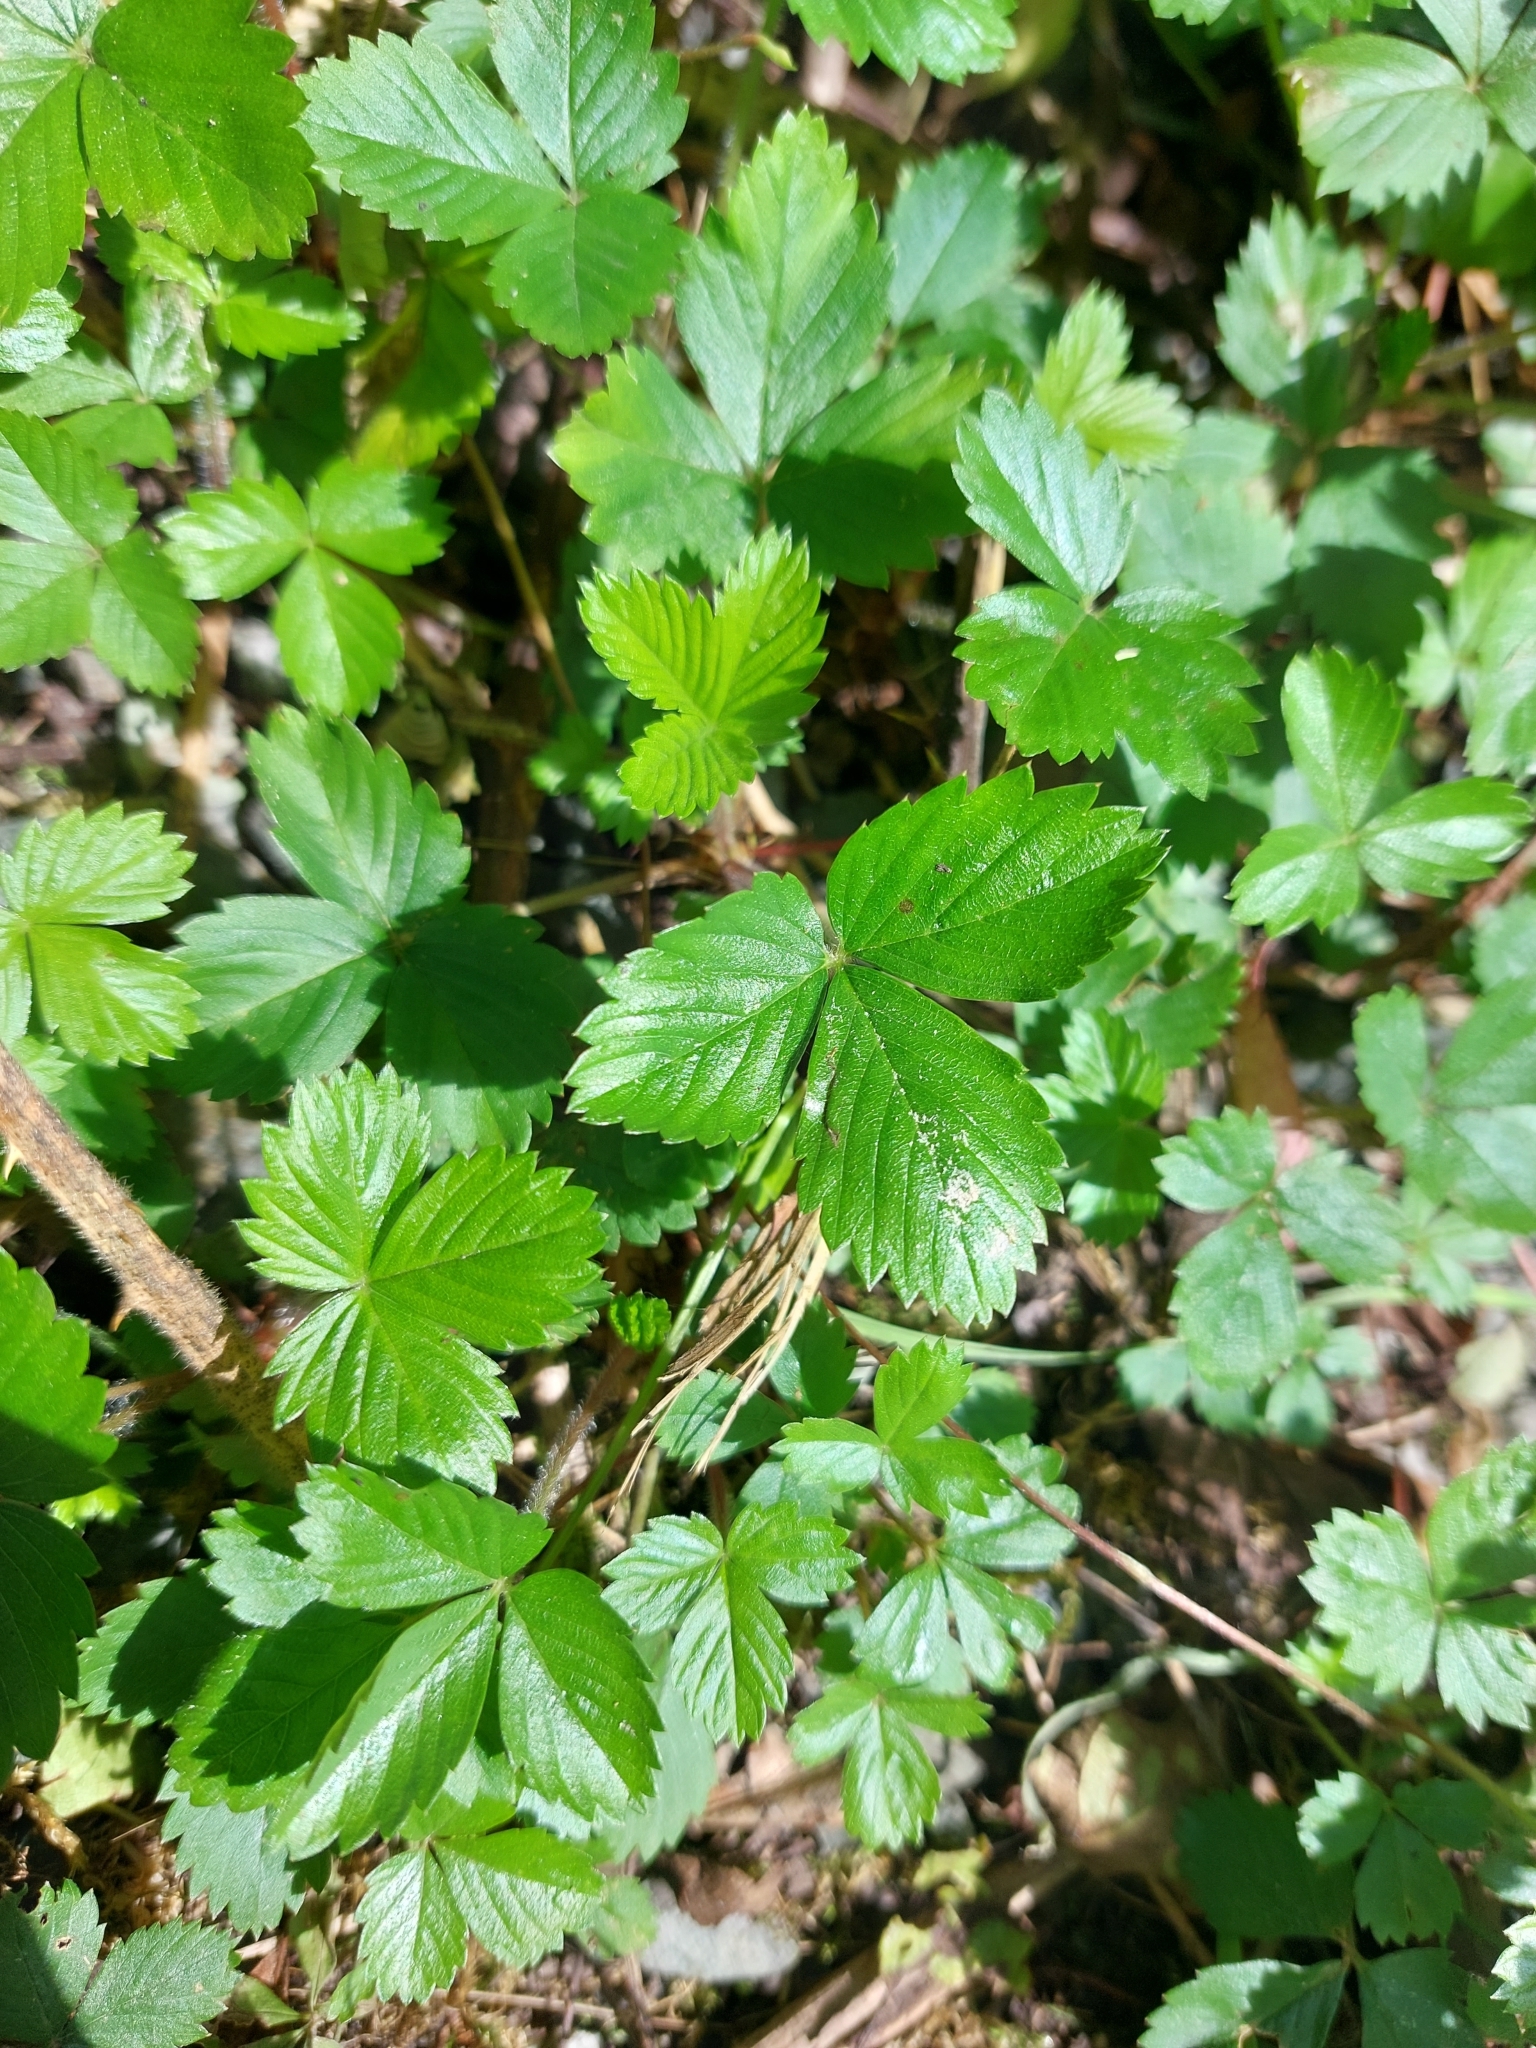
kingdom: Plantae
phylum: Tracheophyta
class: Magnoliopsida
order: Rosales
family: Rosaceae
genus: Fragaria
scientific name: Fragaria vesca
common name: Wild strawberry
